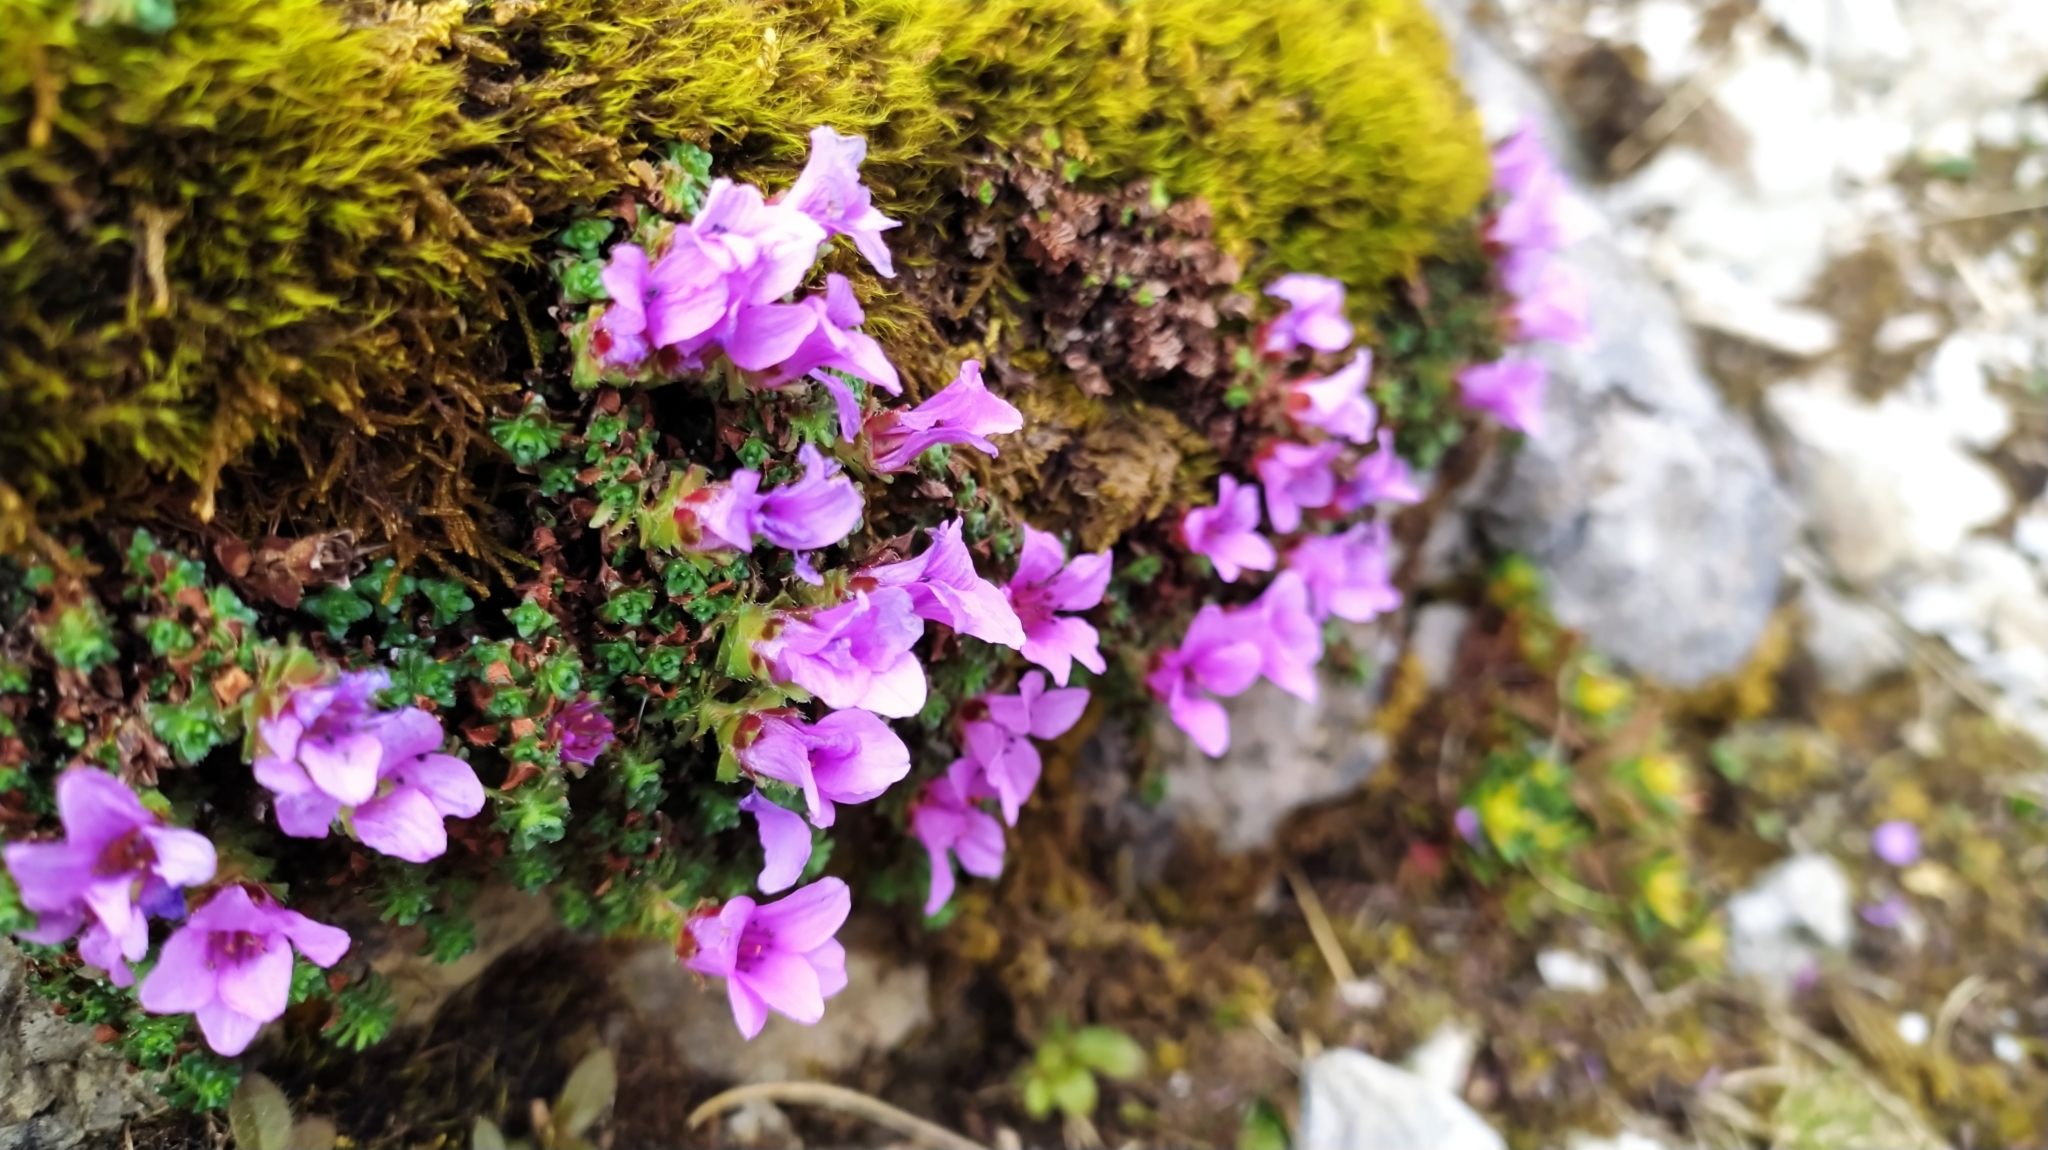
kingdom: Plantae
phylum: Tracheophyta
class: Magnoliopsida
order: Saxifragales
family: Saxifragaceae
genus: Saxifraga
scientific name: Saxifraga oppositifolia
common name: Purple saxifrage
